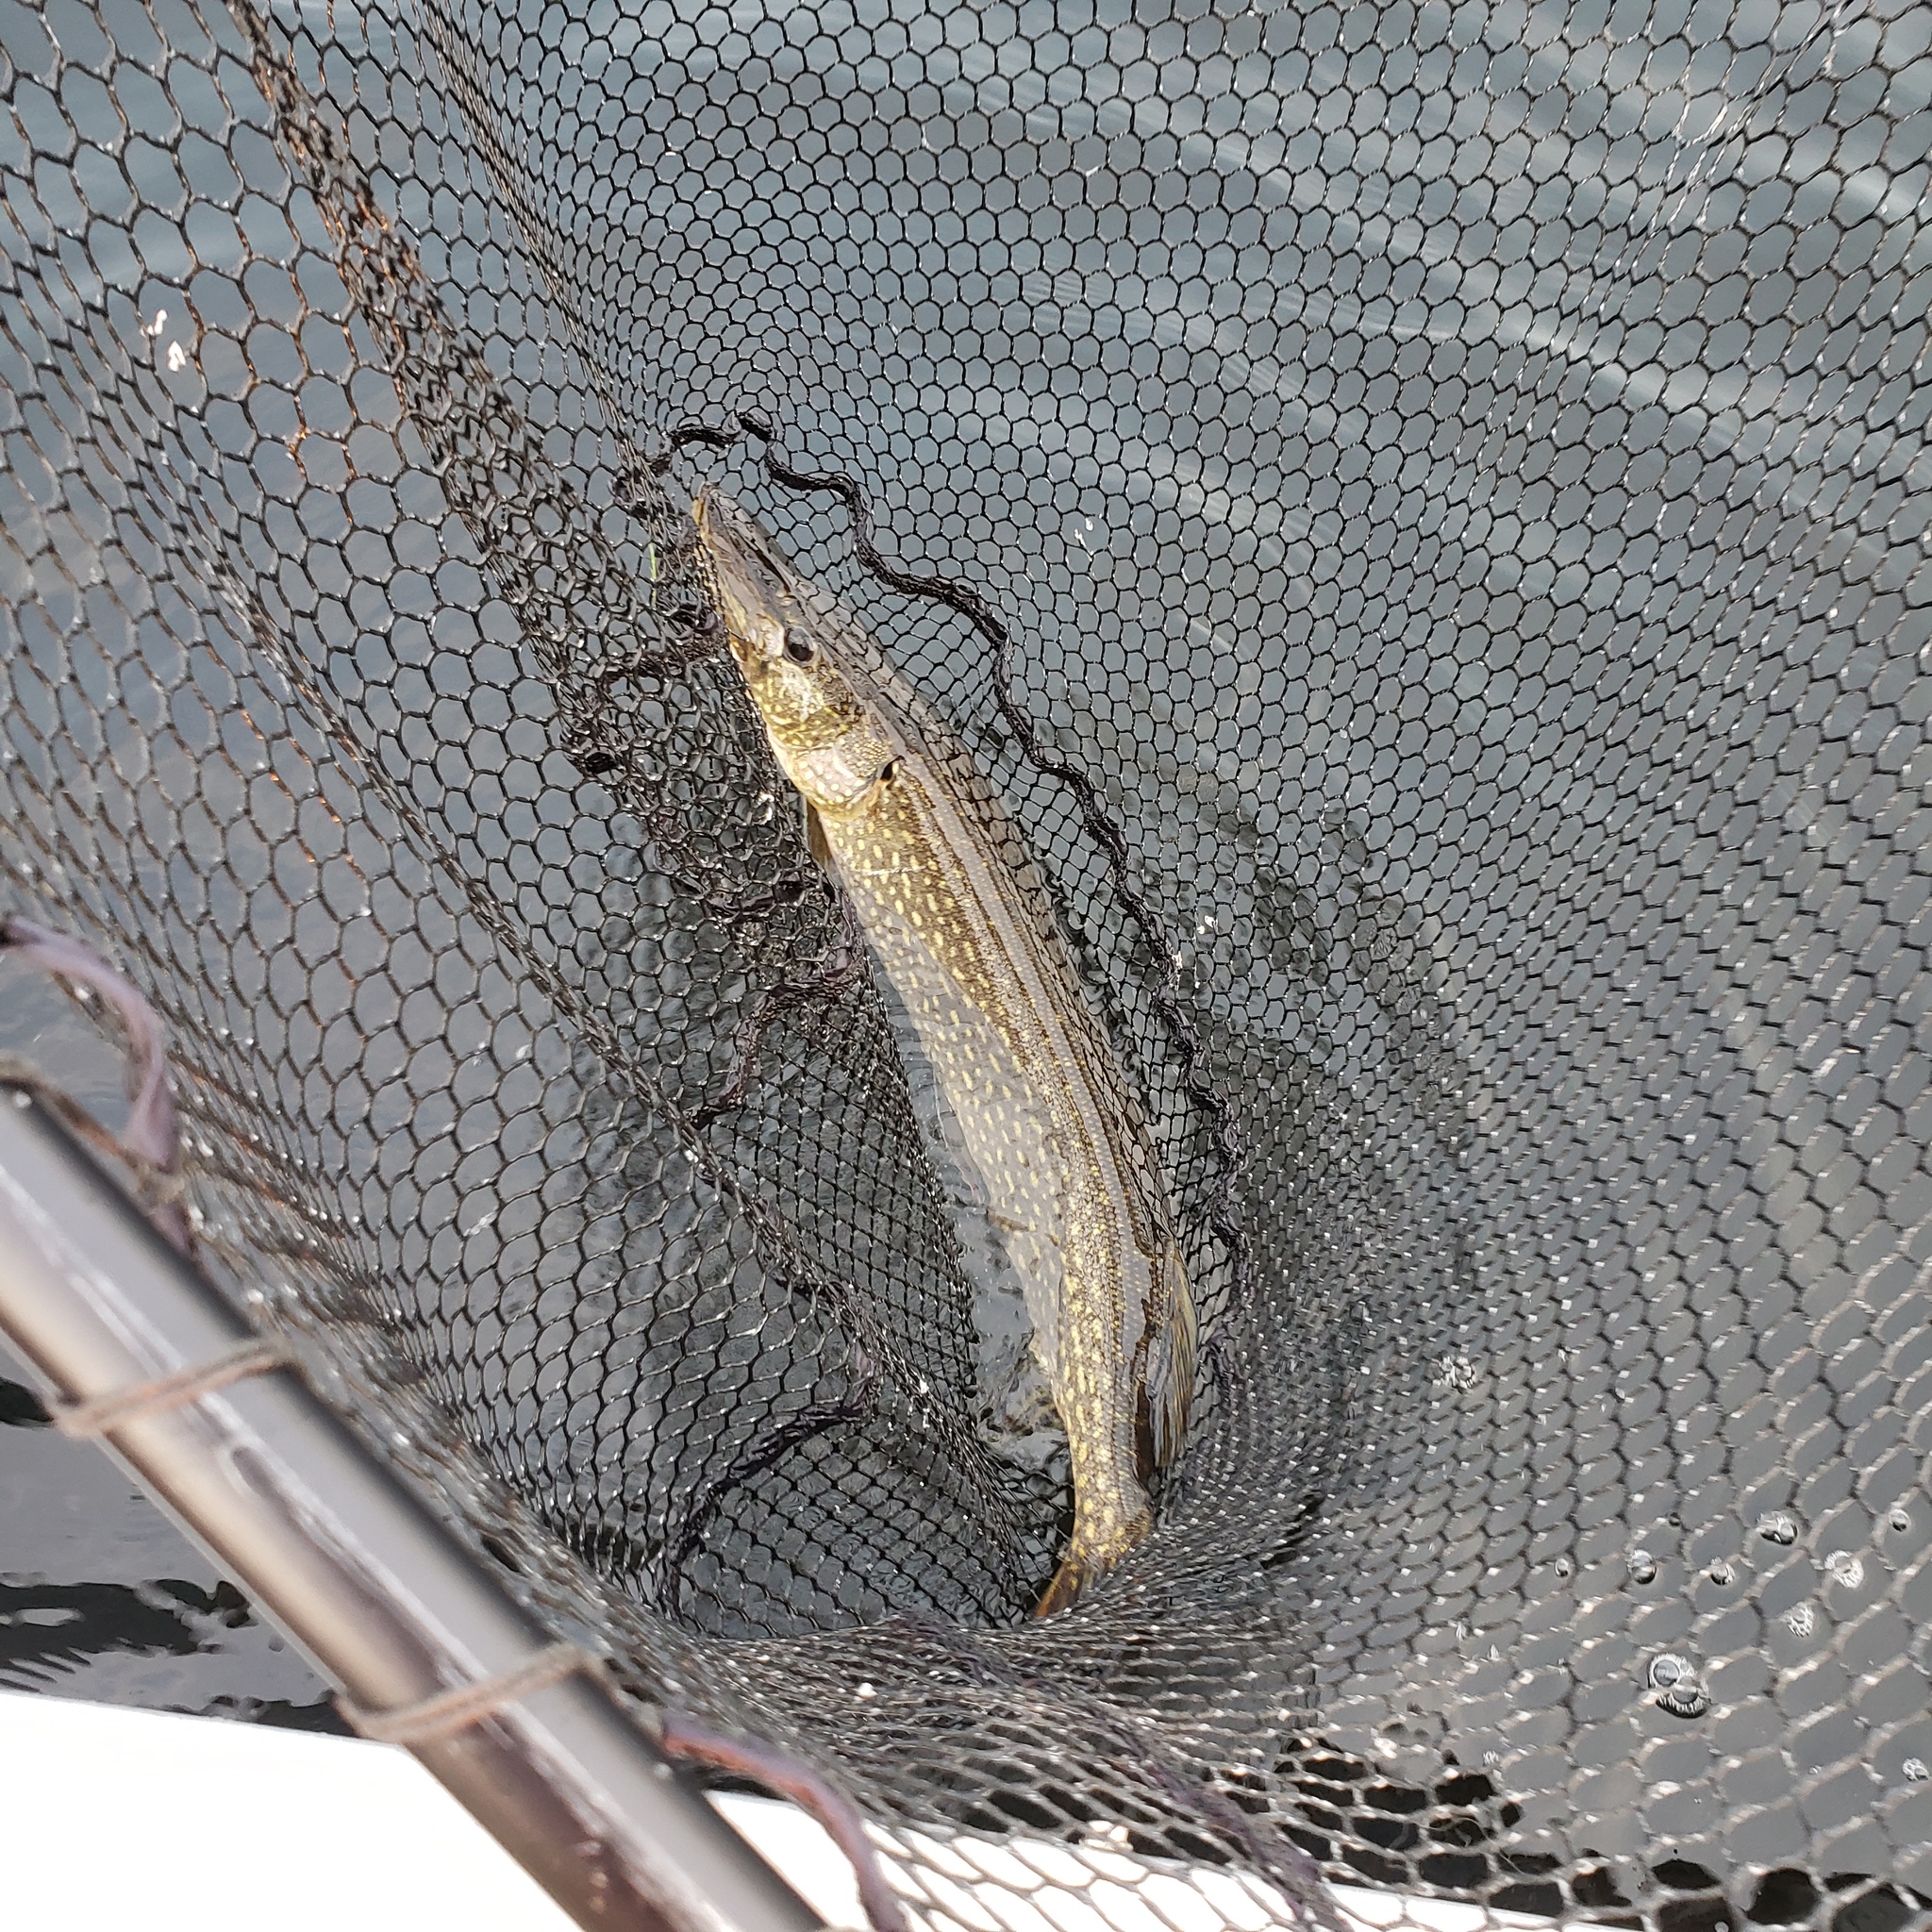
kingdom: Animalia
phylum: Chordata
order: Esociformes
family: Esocidae
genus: Esox
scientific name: Esox lucius
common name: Northern pike
